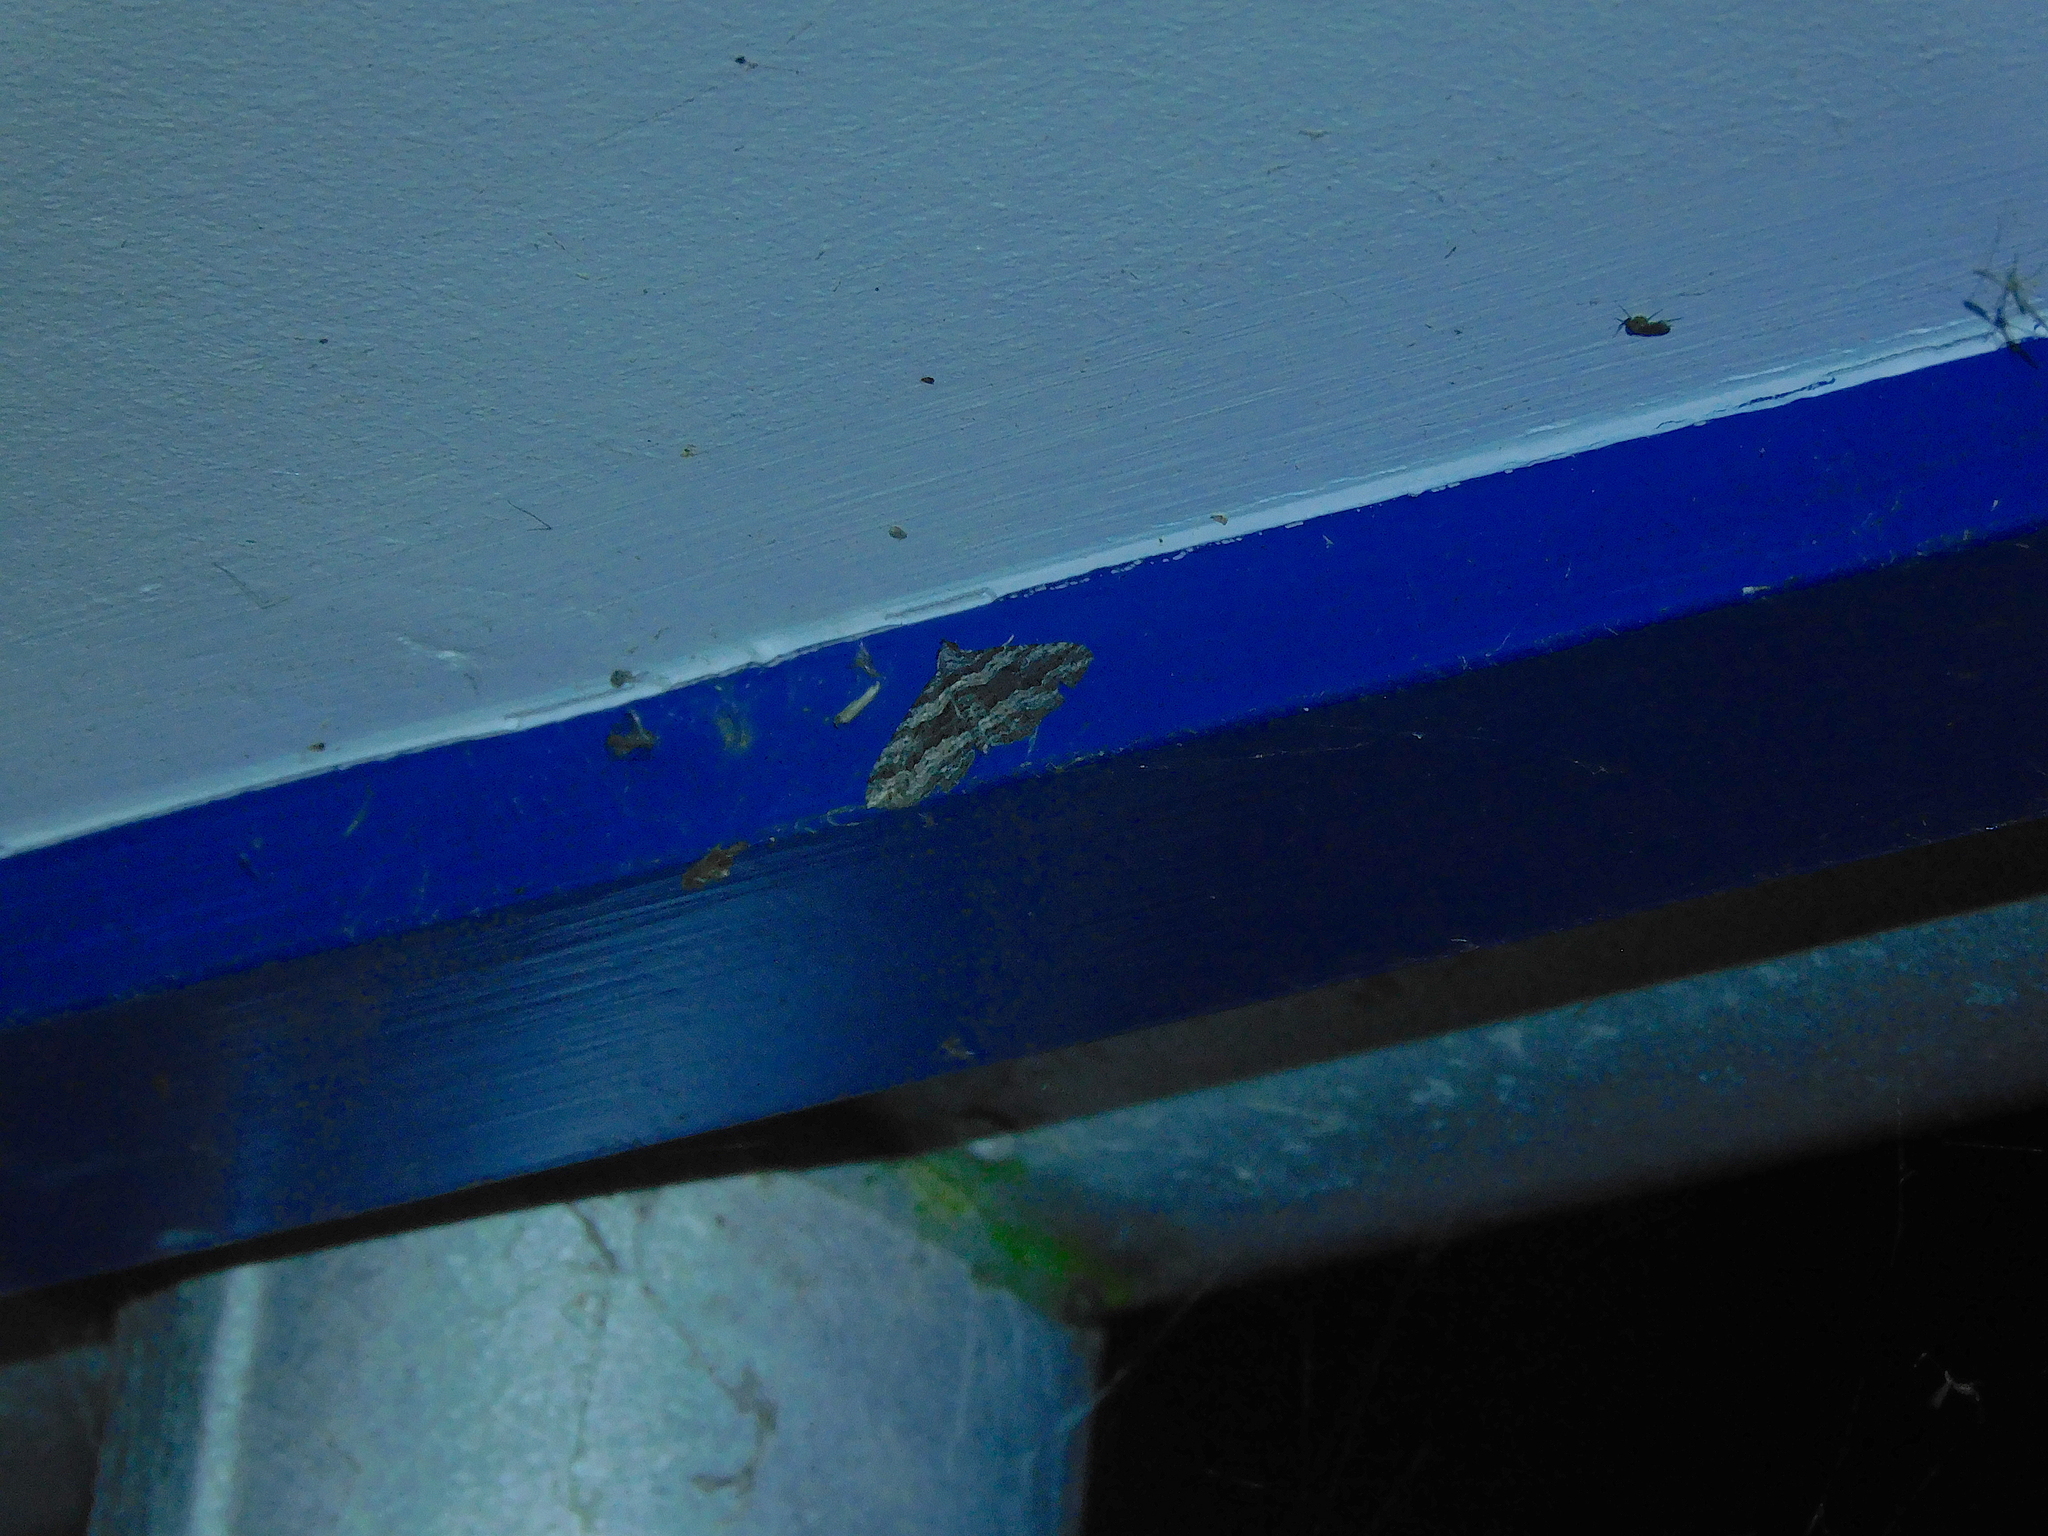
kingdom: Animalia
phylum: Arthropoda
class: Insecta
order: Lepidoptera
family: Geometridae
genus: Chrysolarentia
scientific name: Chrysolarentia severata
